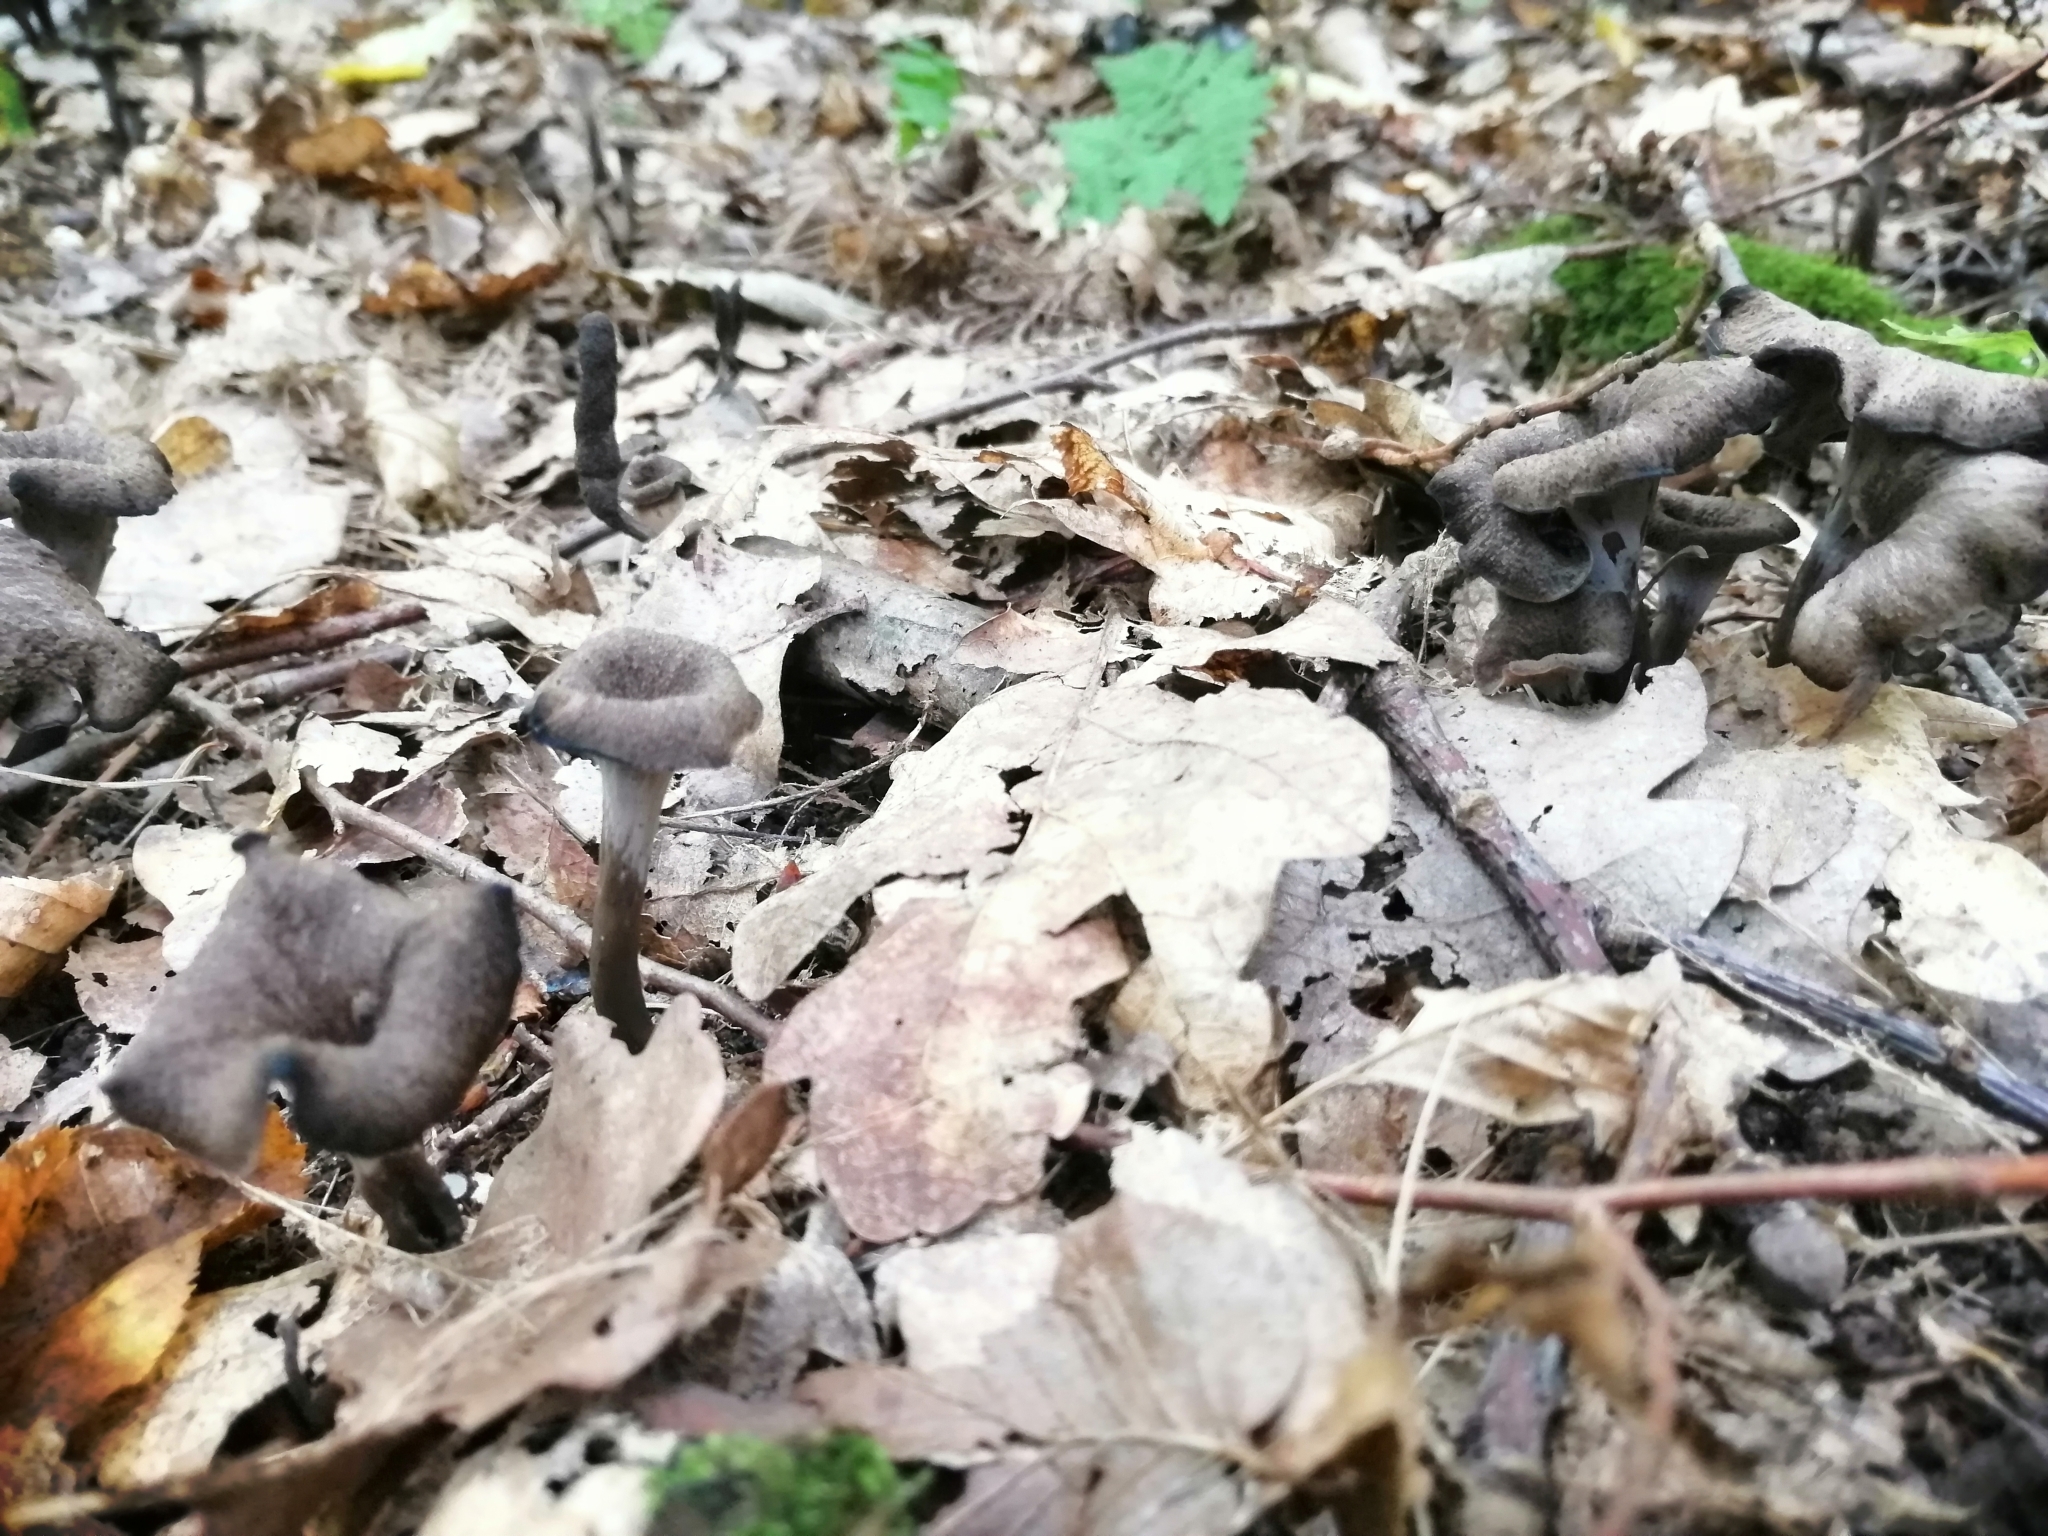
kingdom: Fungi
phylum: Basidiomycota
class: Agaricomycetes
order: Cantharellales
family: Hydnaceae
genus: Craterellus
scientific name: Craterellus cornucopioides
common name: Horn of plenty
